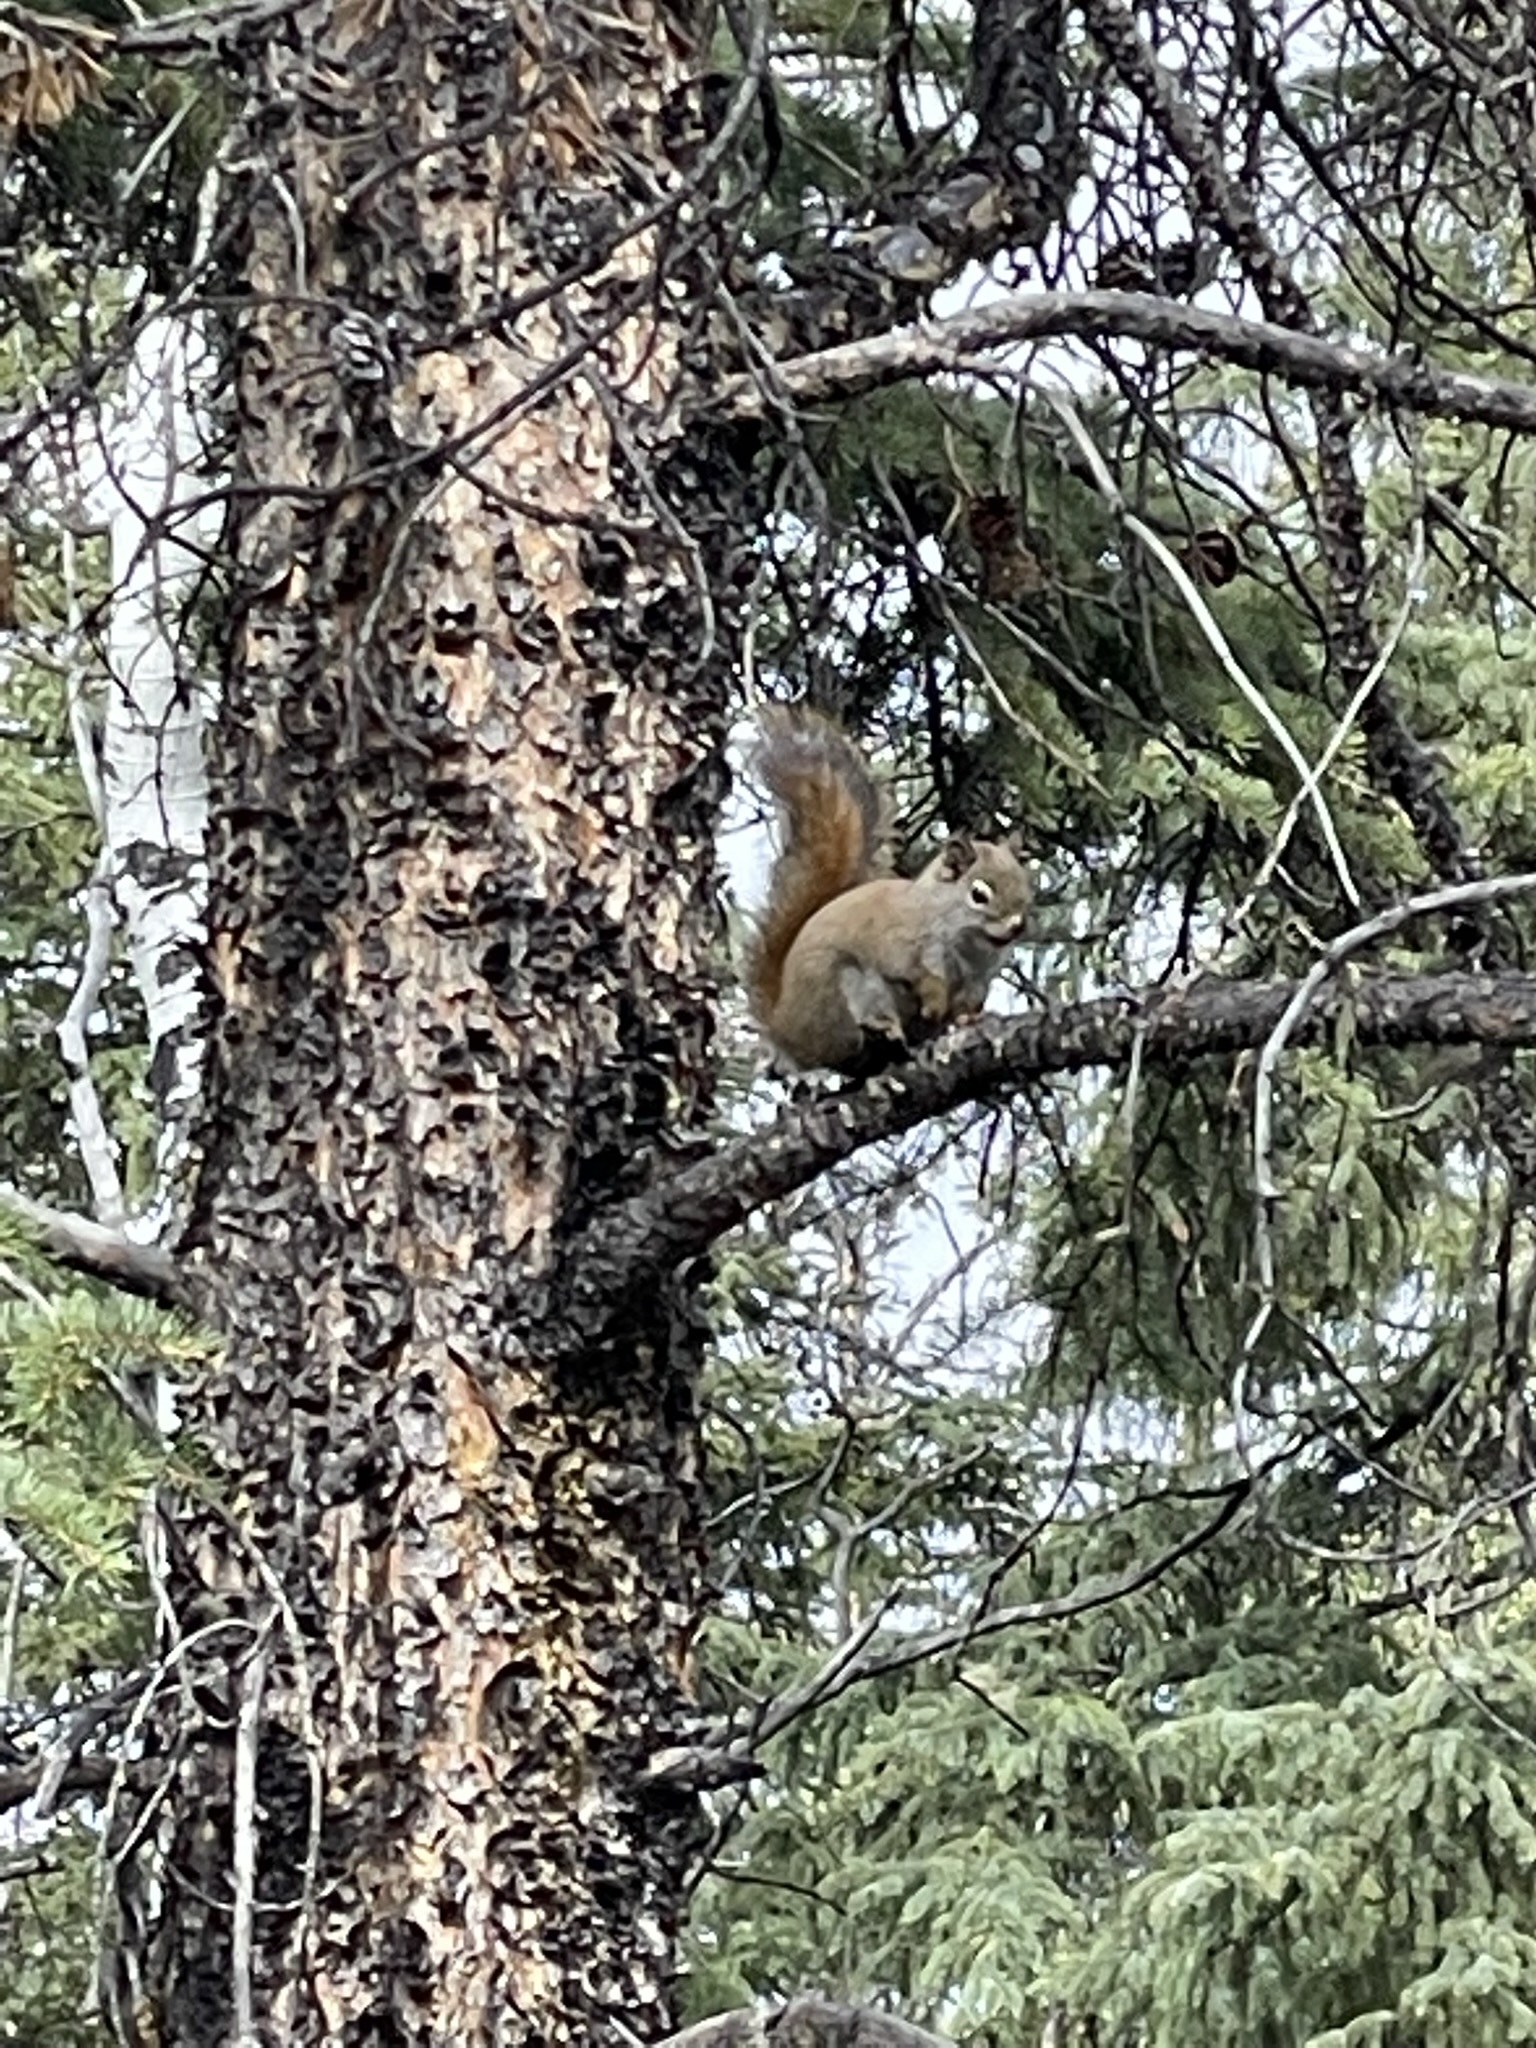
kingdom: Animalia
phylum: Chordata
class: Mammalia
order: Rodentia
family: Sciuridae
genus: Tamiasciurus
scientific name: Tamiasciurus hudsonicus
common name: Red squirrel
